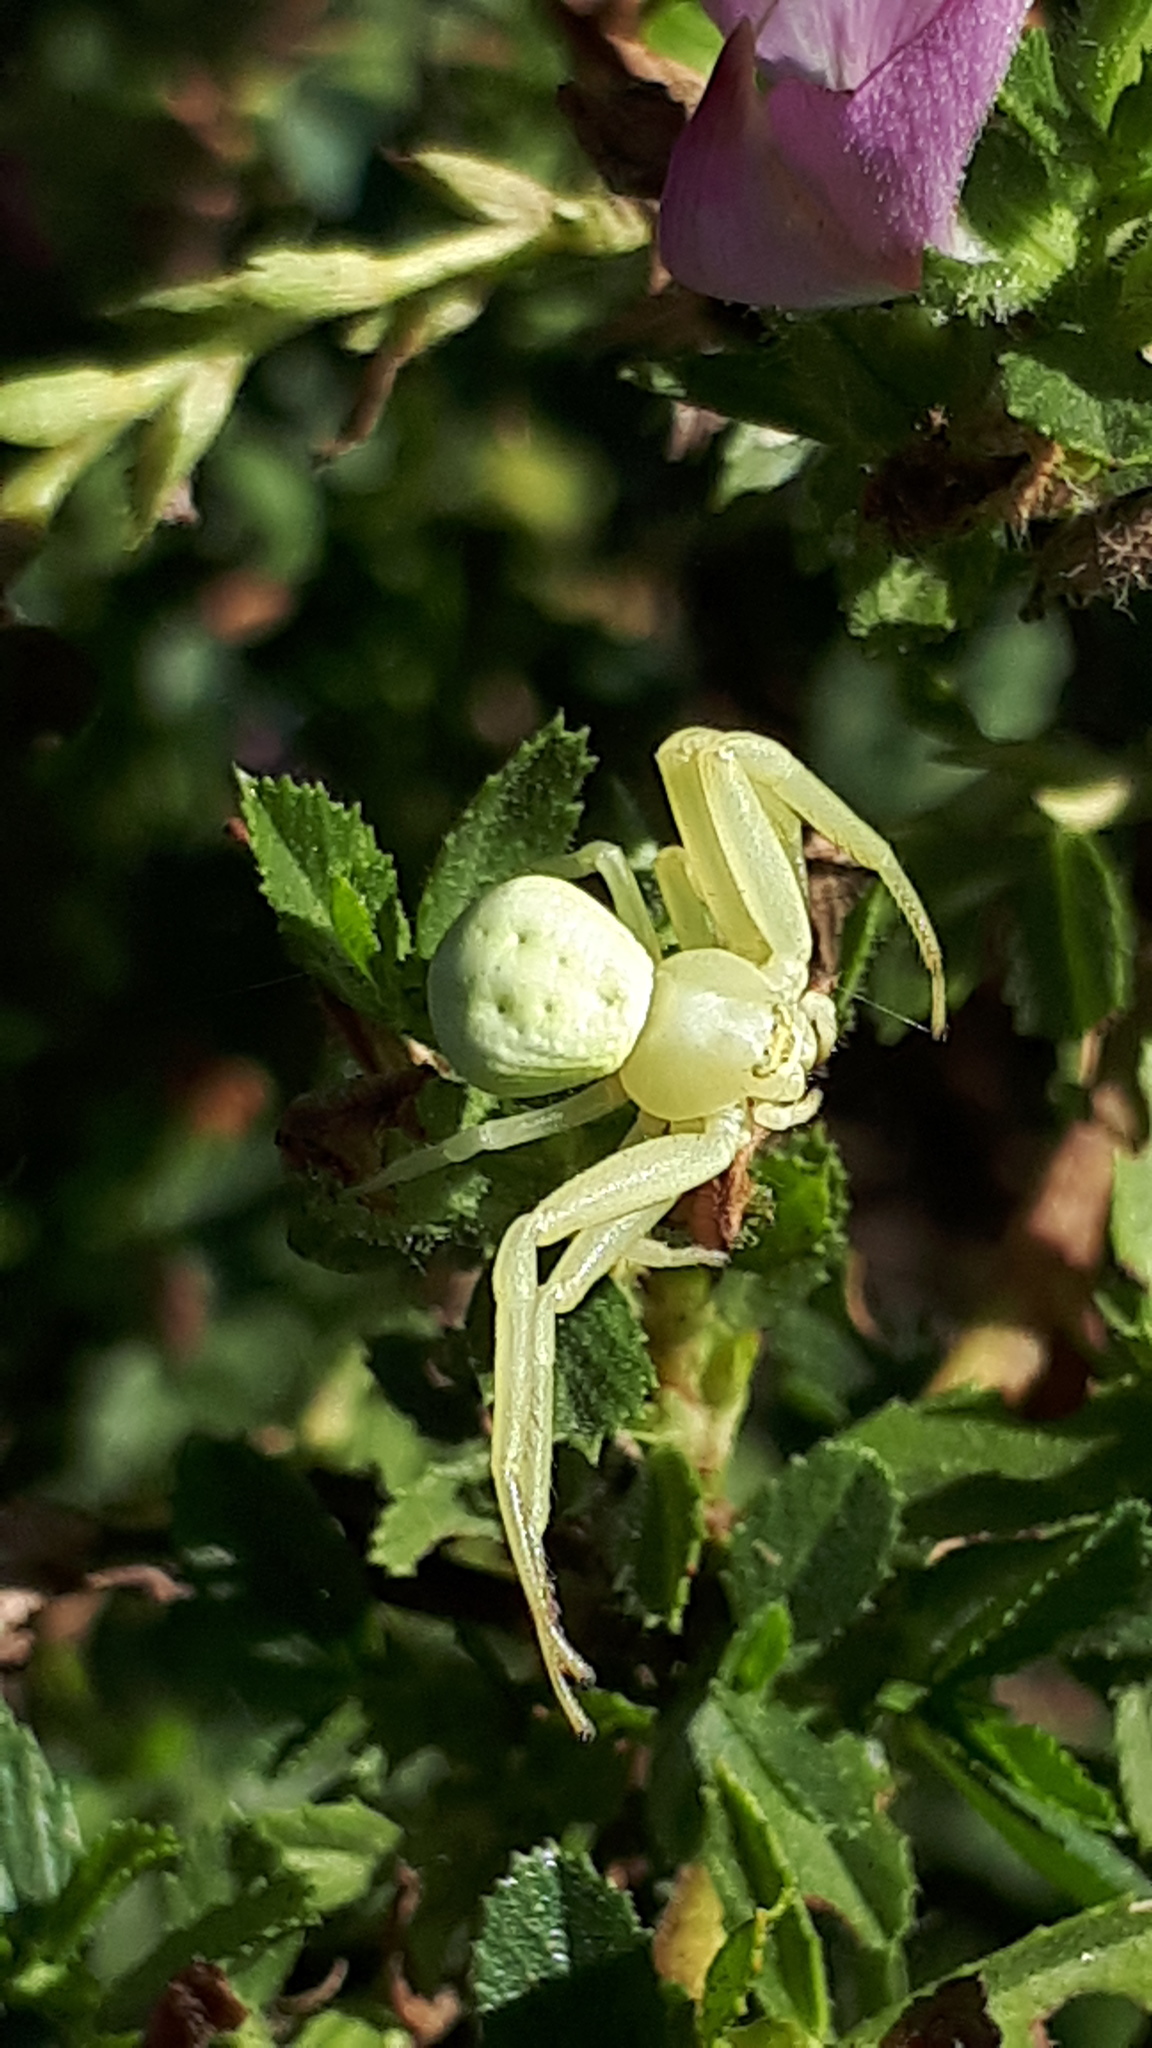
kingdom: Animalia
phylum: Arthropoda
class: Arachnida
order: Araneae
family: Thomisidae
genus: Misumena
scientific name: Misumena vatia
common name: Goldenrod crab spider
